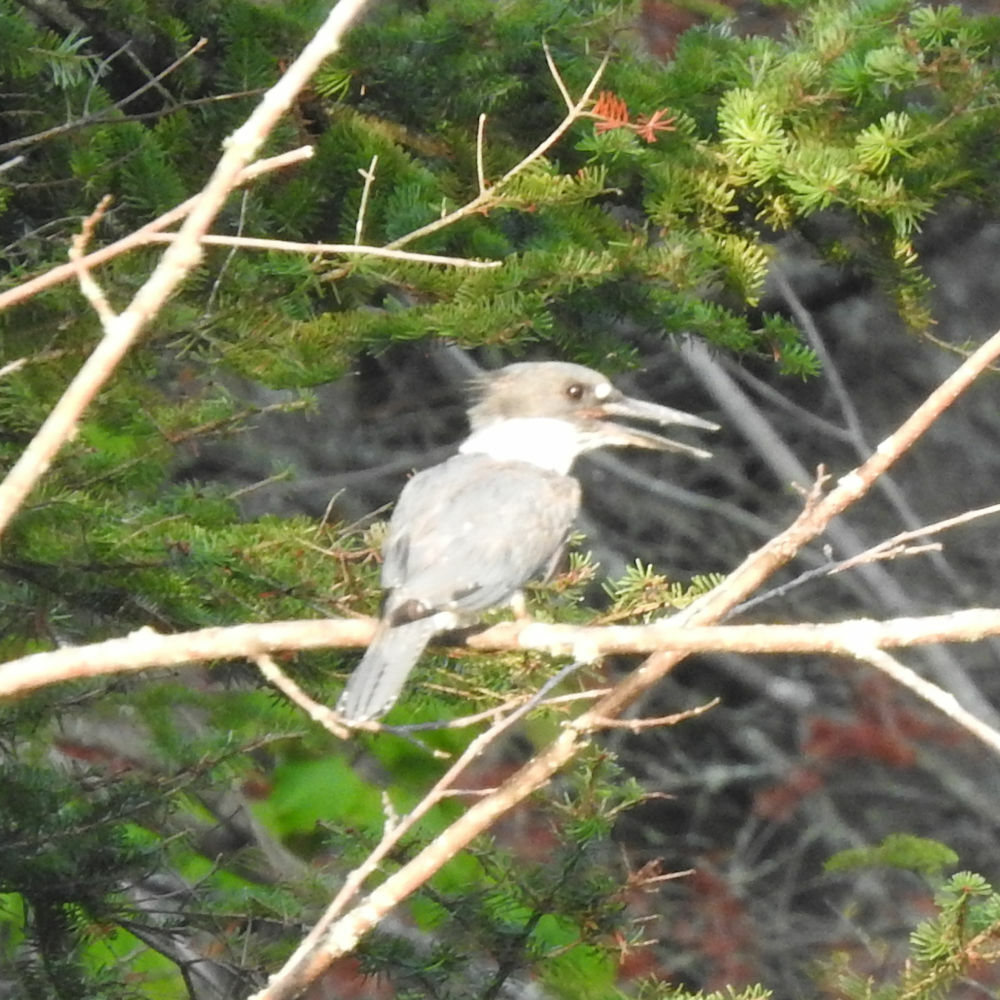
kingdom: Animalia
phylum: Chordata
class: Aves
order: Coraciiformes
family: Alcedinidae
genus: Megaceryle
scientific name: Megaceryle alcyon
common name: Belted kingfisher
